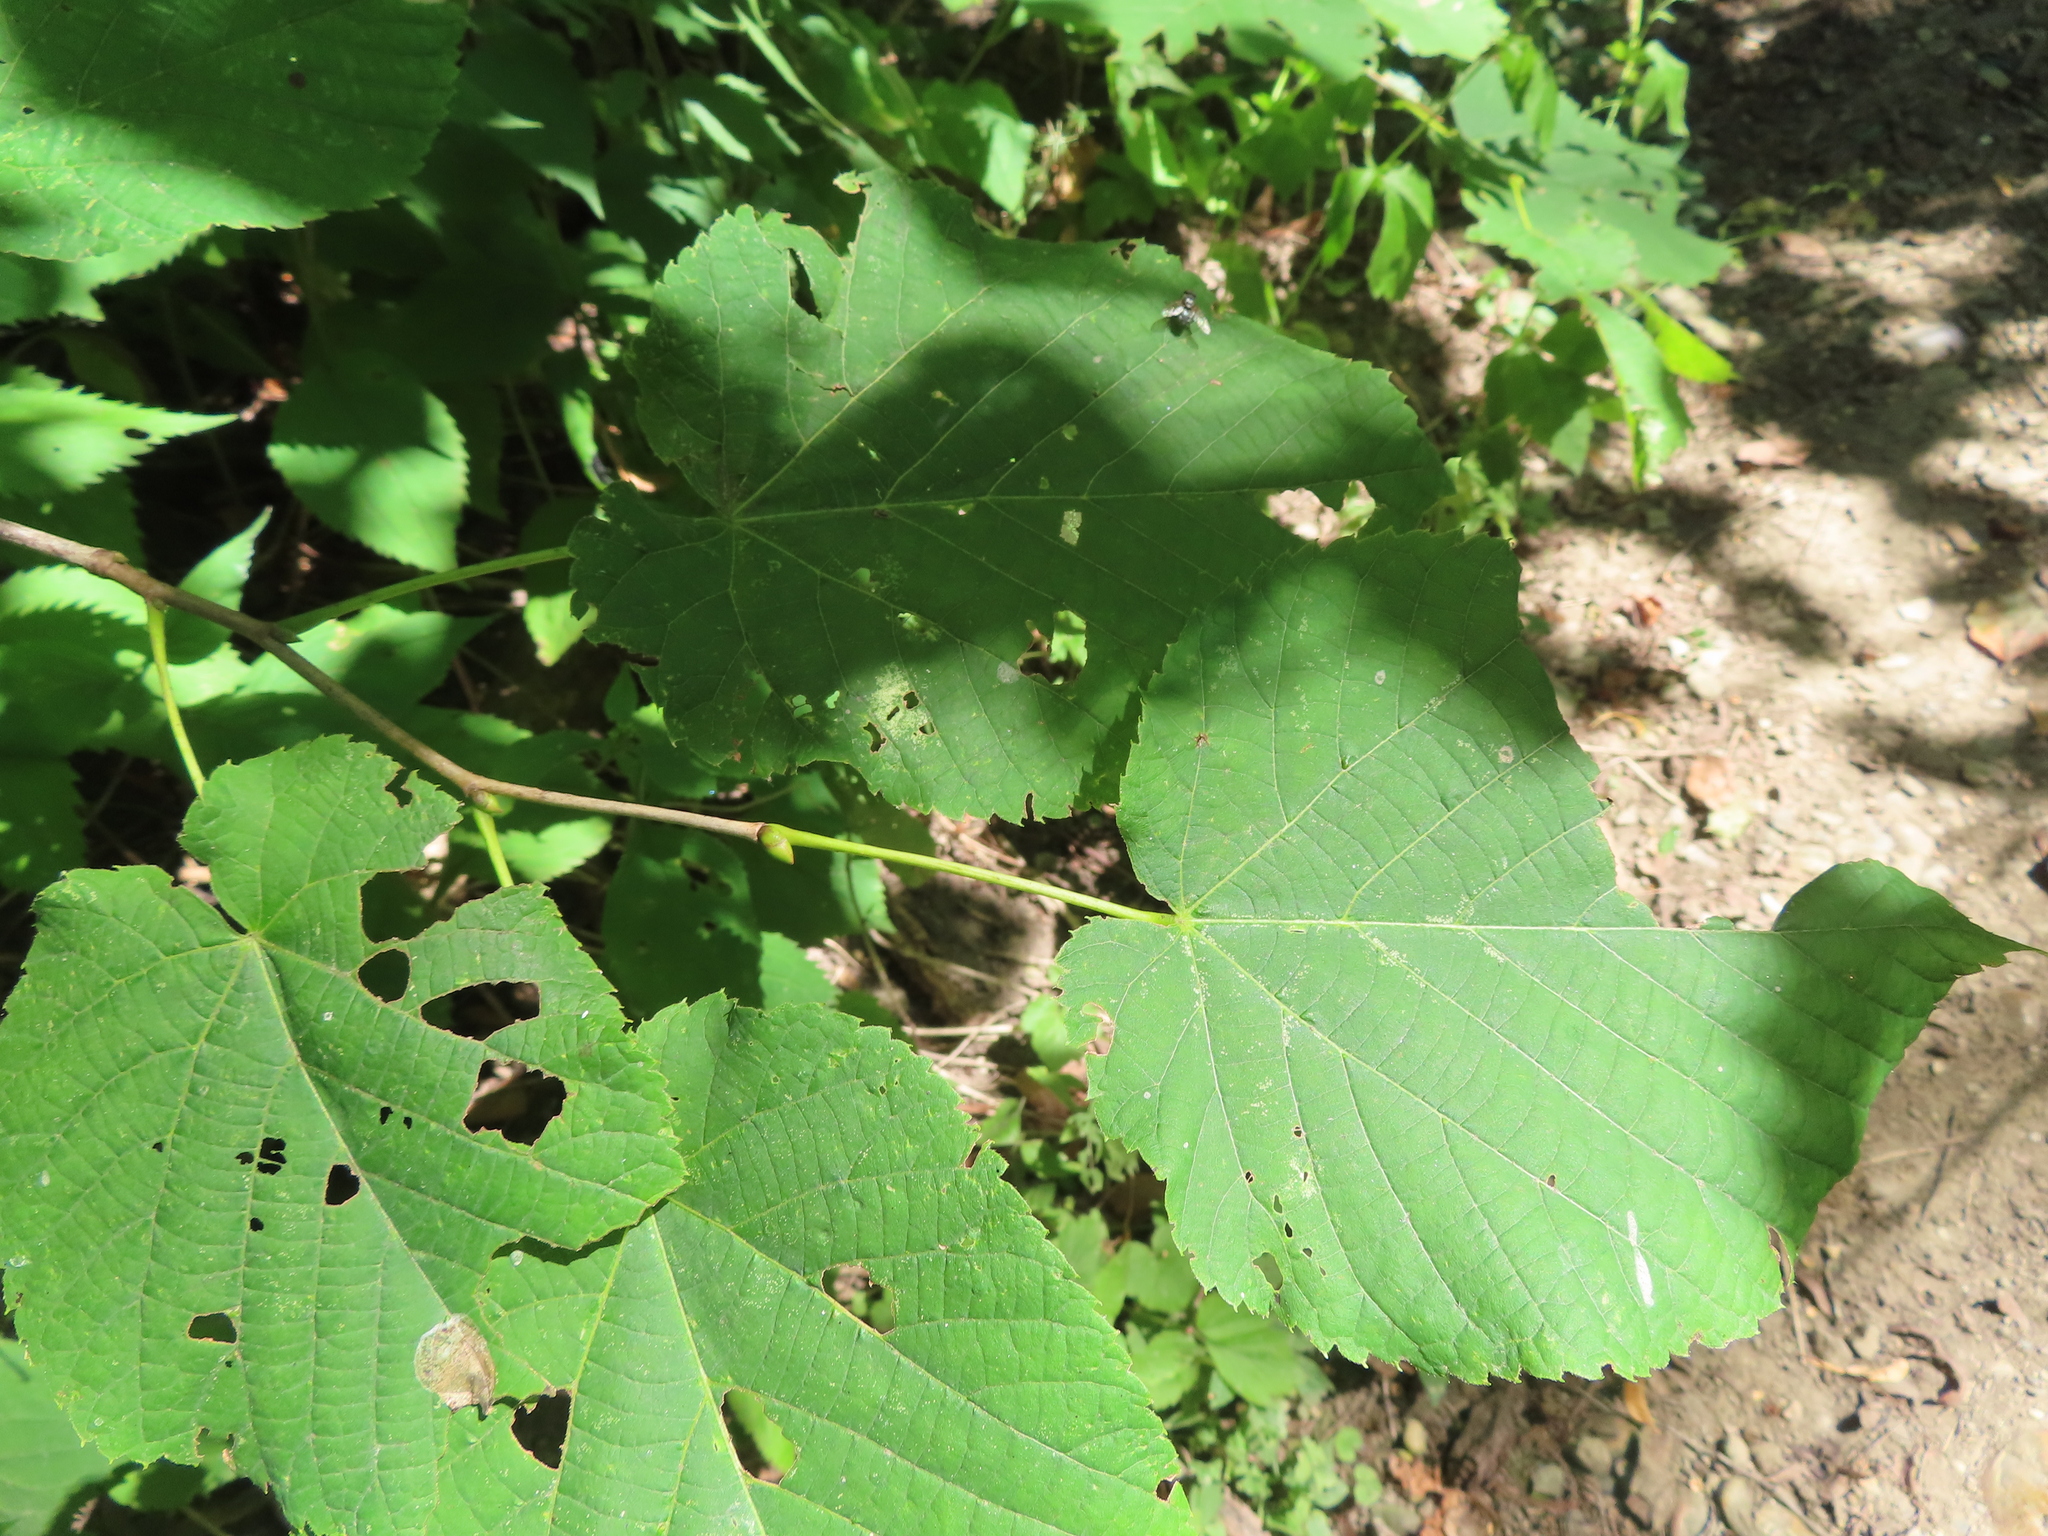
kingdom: Plantae
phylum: Tracheophyta
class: Magnoliopsida
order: Malvales
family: Malvaceae
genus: Tilia
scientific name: Tilia americana
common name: Basswood
